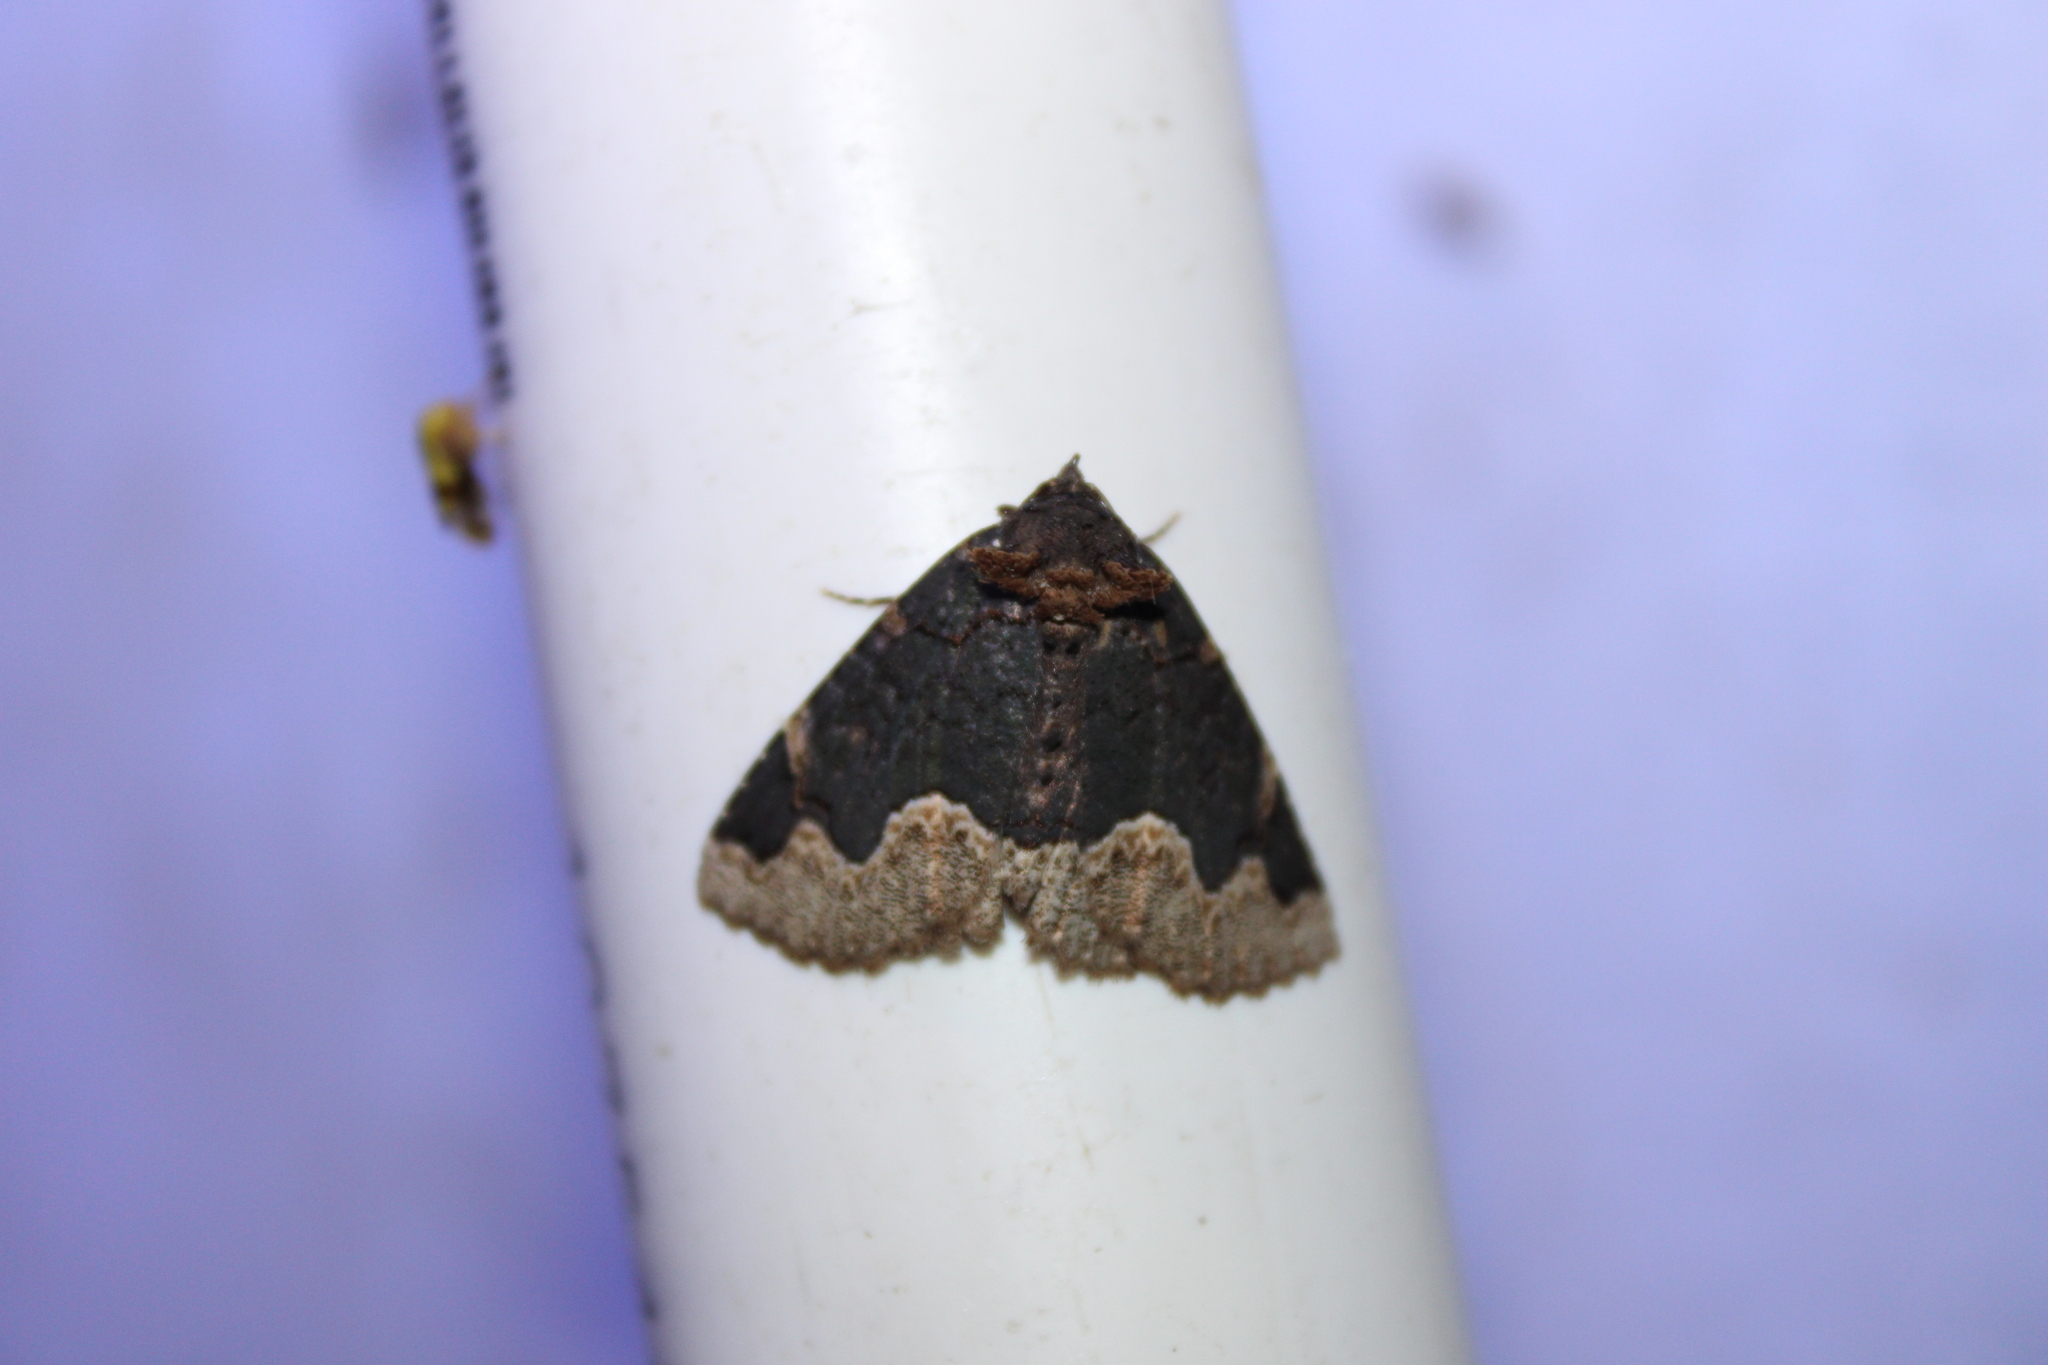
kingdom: Animalia
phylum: Arthropoda
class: Insecta
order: Lepidoptera
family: Erebidae
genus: Zale
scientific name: Zale horrida
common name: Horrid zale moth
